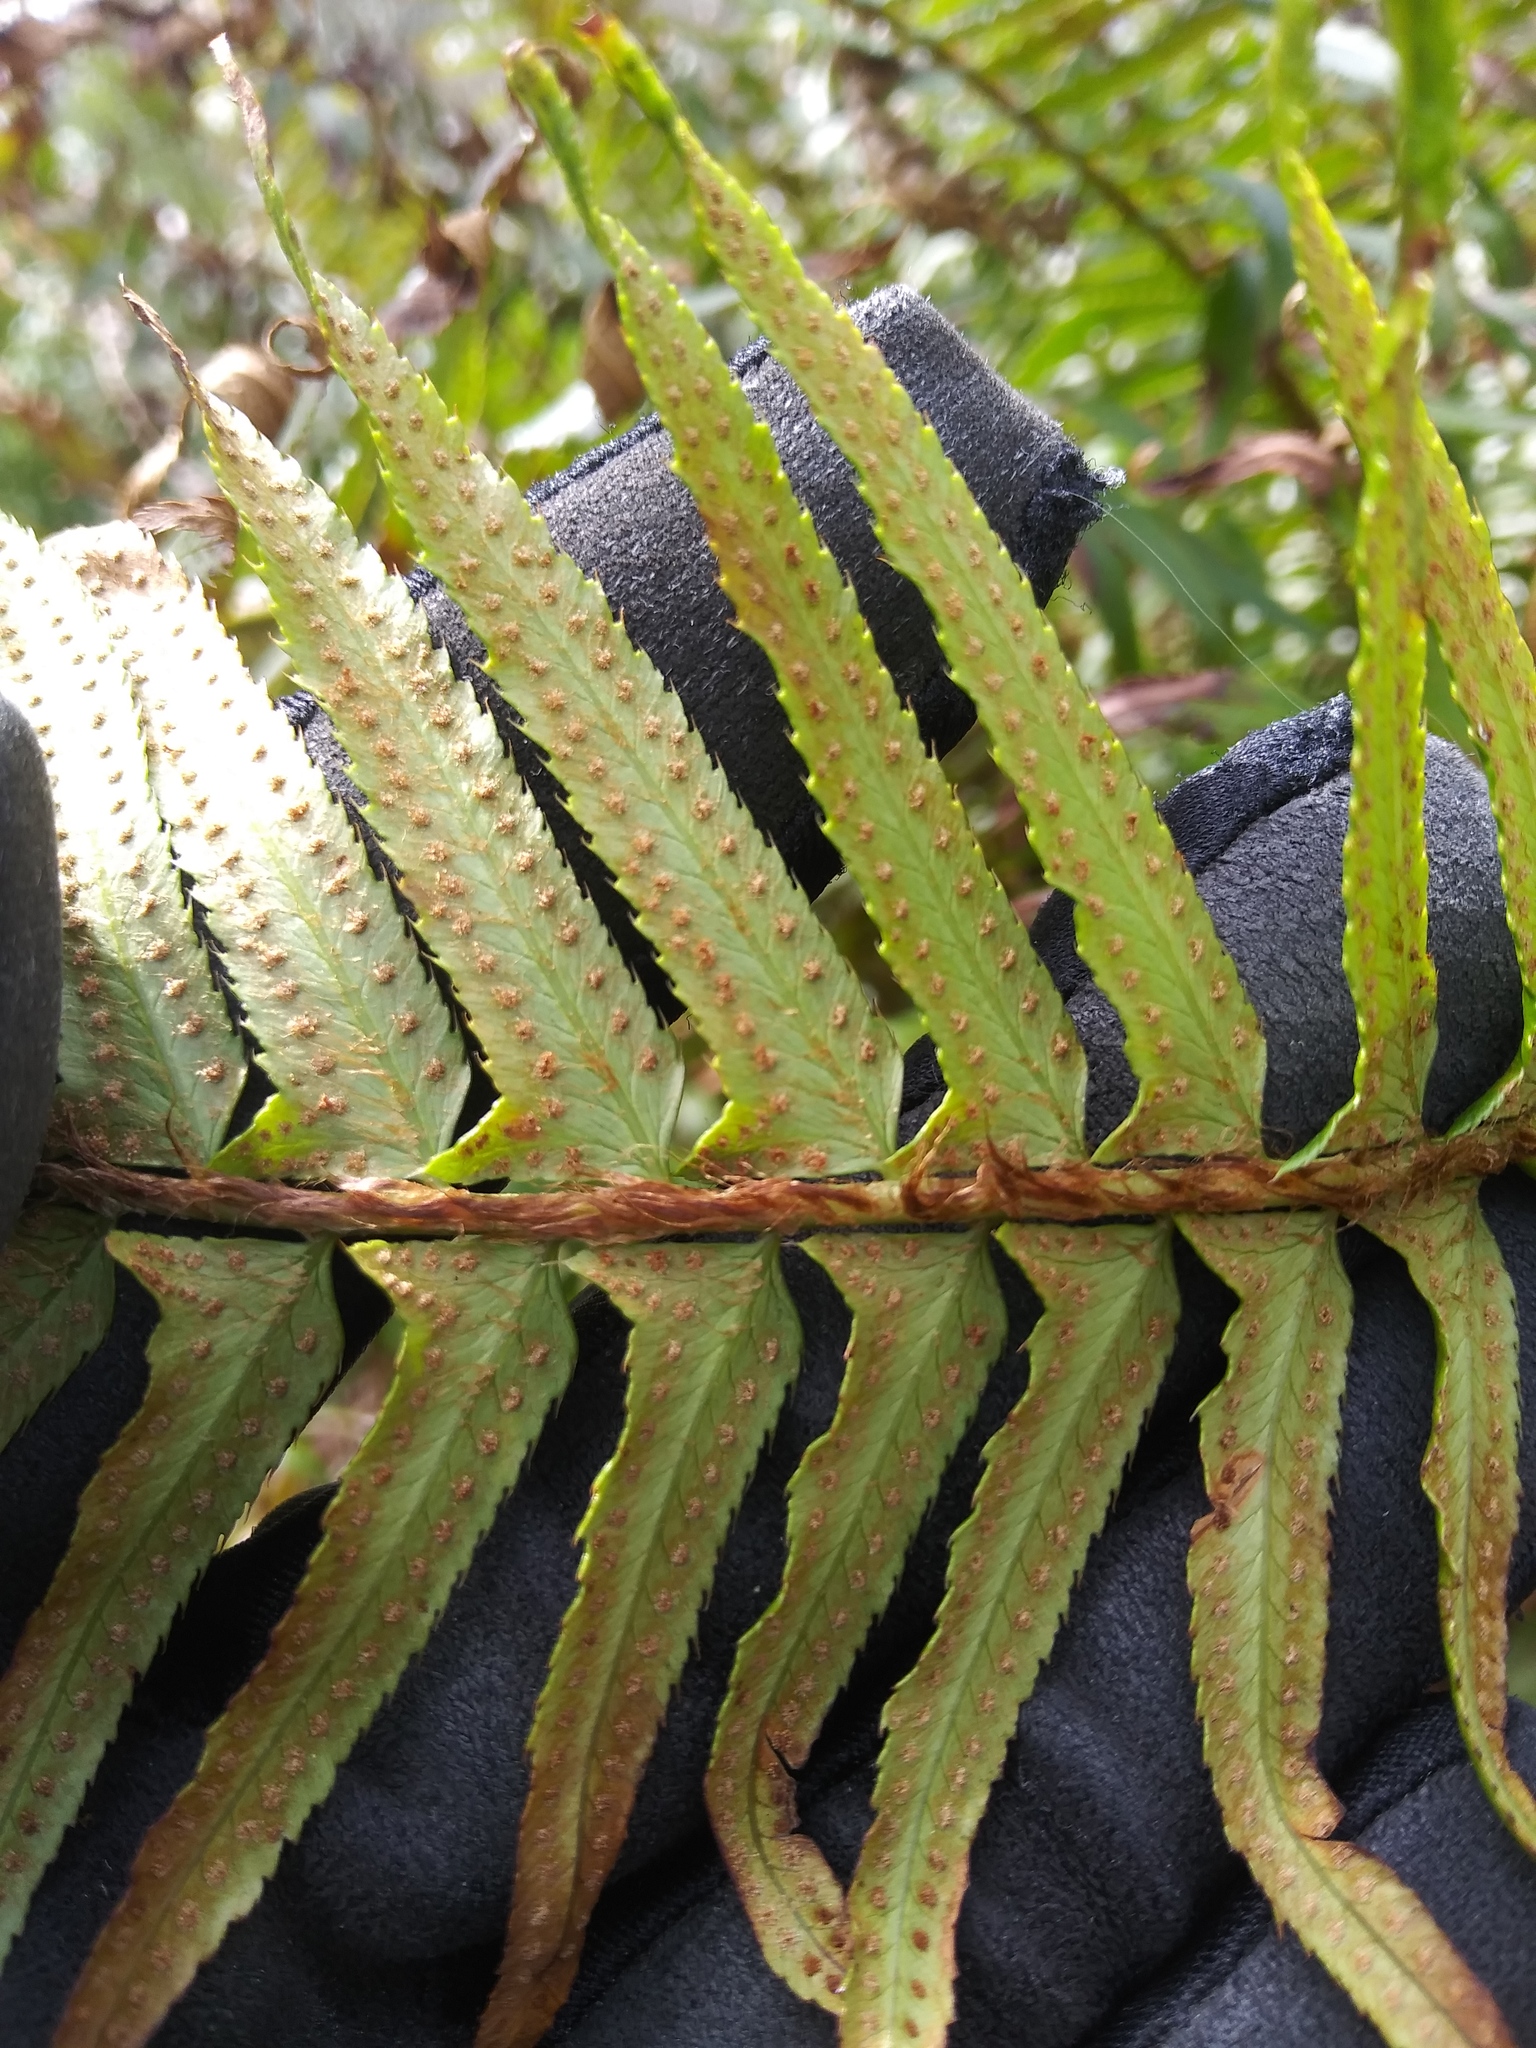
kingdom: Plantae
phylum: Tracheophyta
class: Polypodiopsida
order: Polypodiales
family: Dryopteridaceae
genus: Polystichum
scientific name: Polystichum munitum
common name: Western sword-fern
